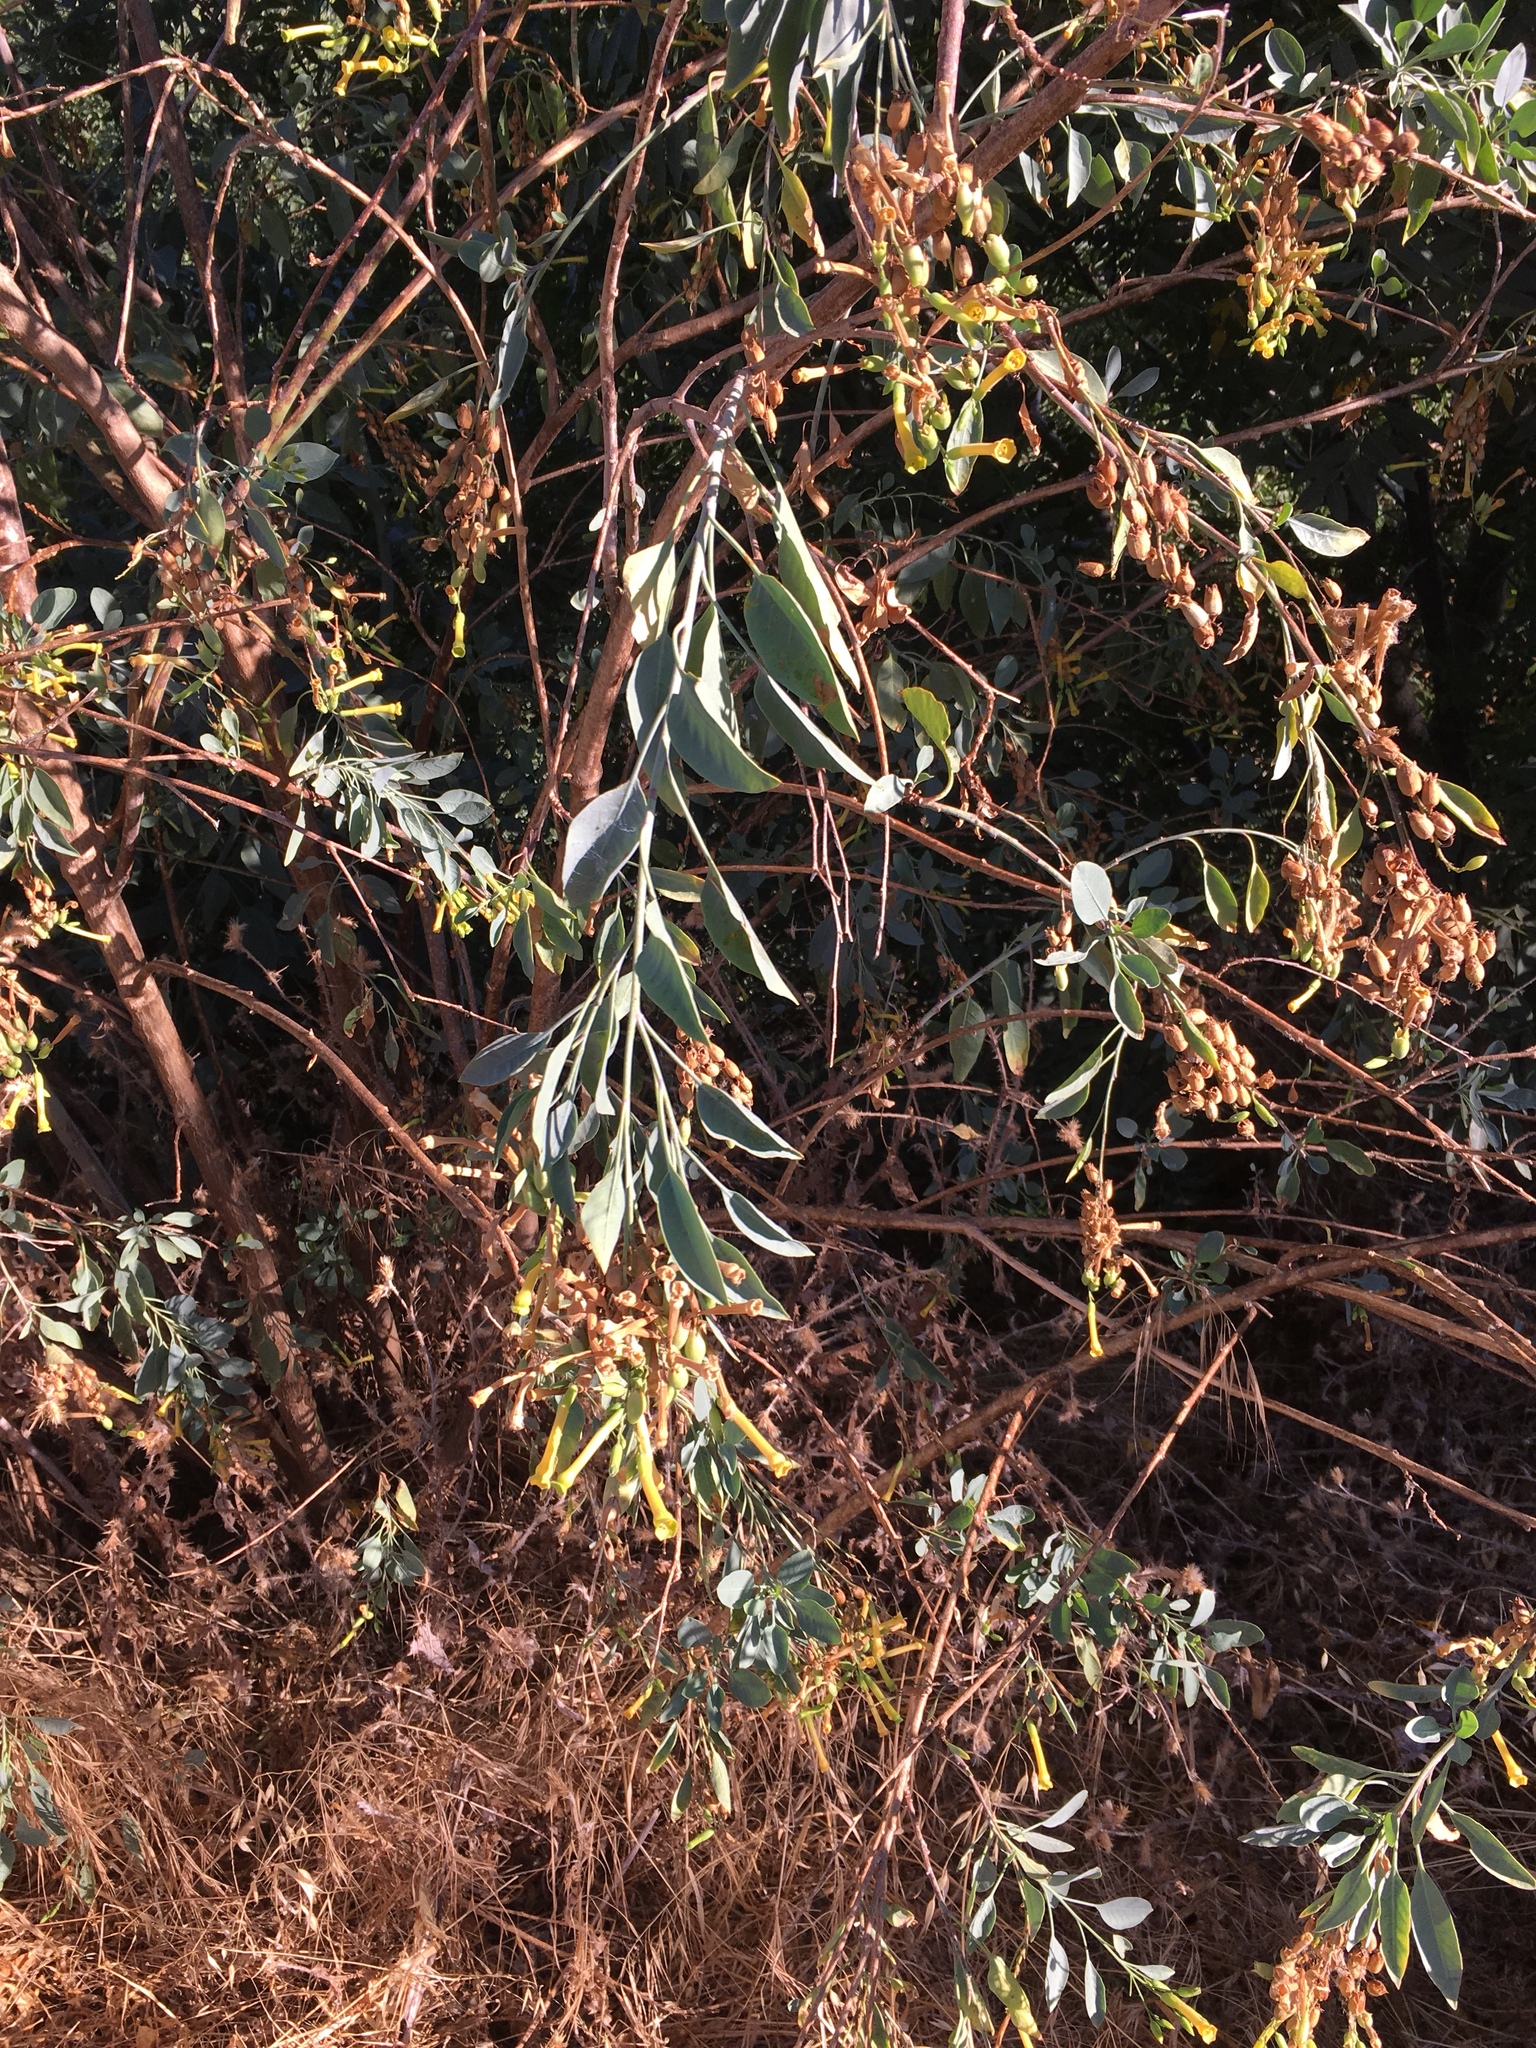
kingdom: Plantae
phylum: Tracheophyta
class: Magnoliopsida
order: Solanales
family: Solanaceae
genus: Nicotiana
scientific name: Nicotiana glauca
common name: Tree tobacco
